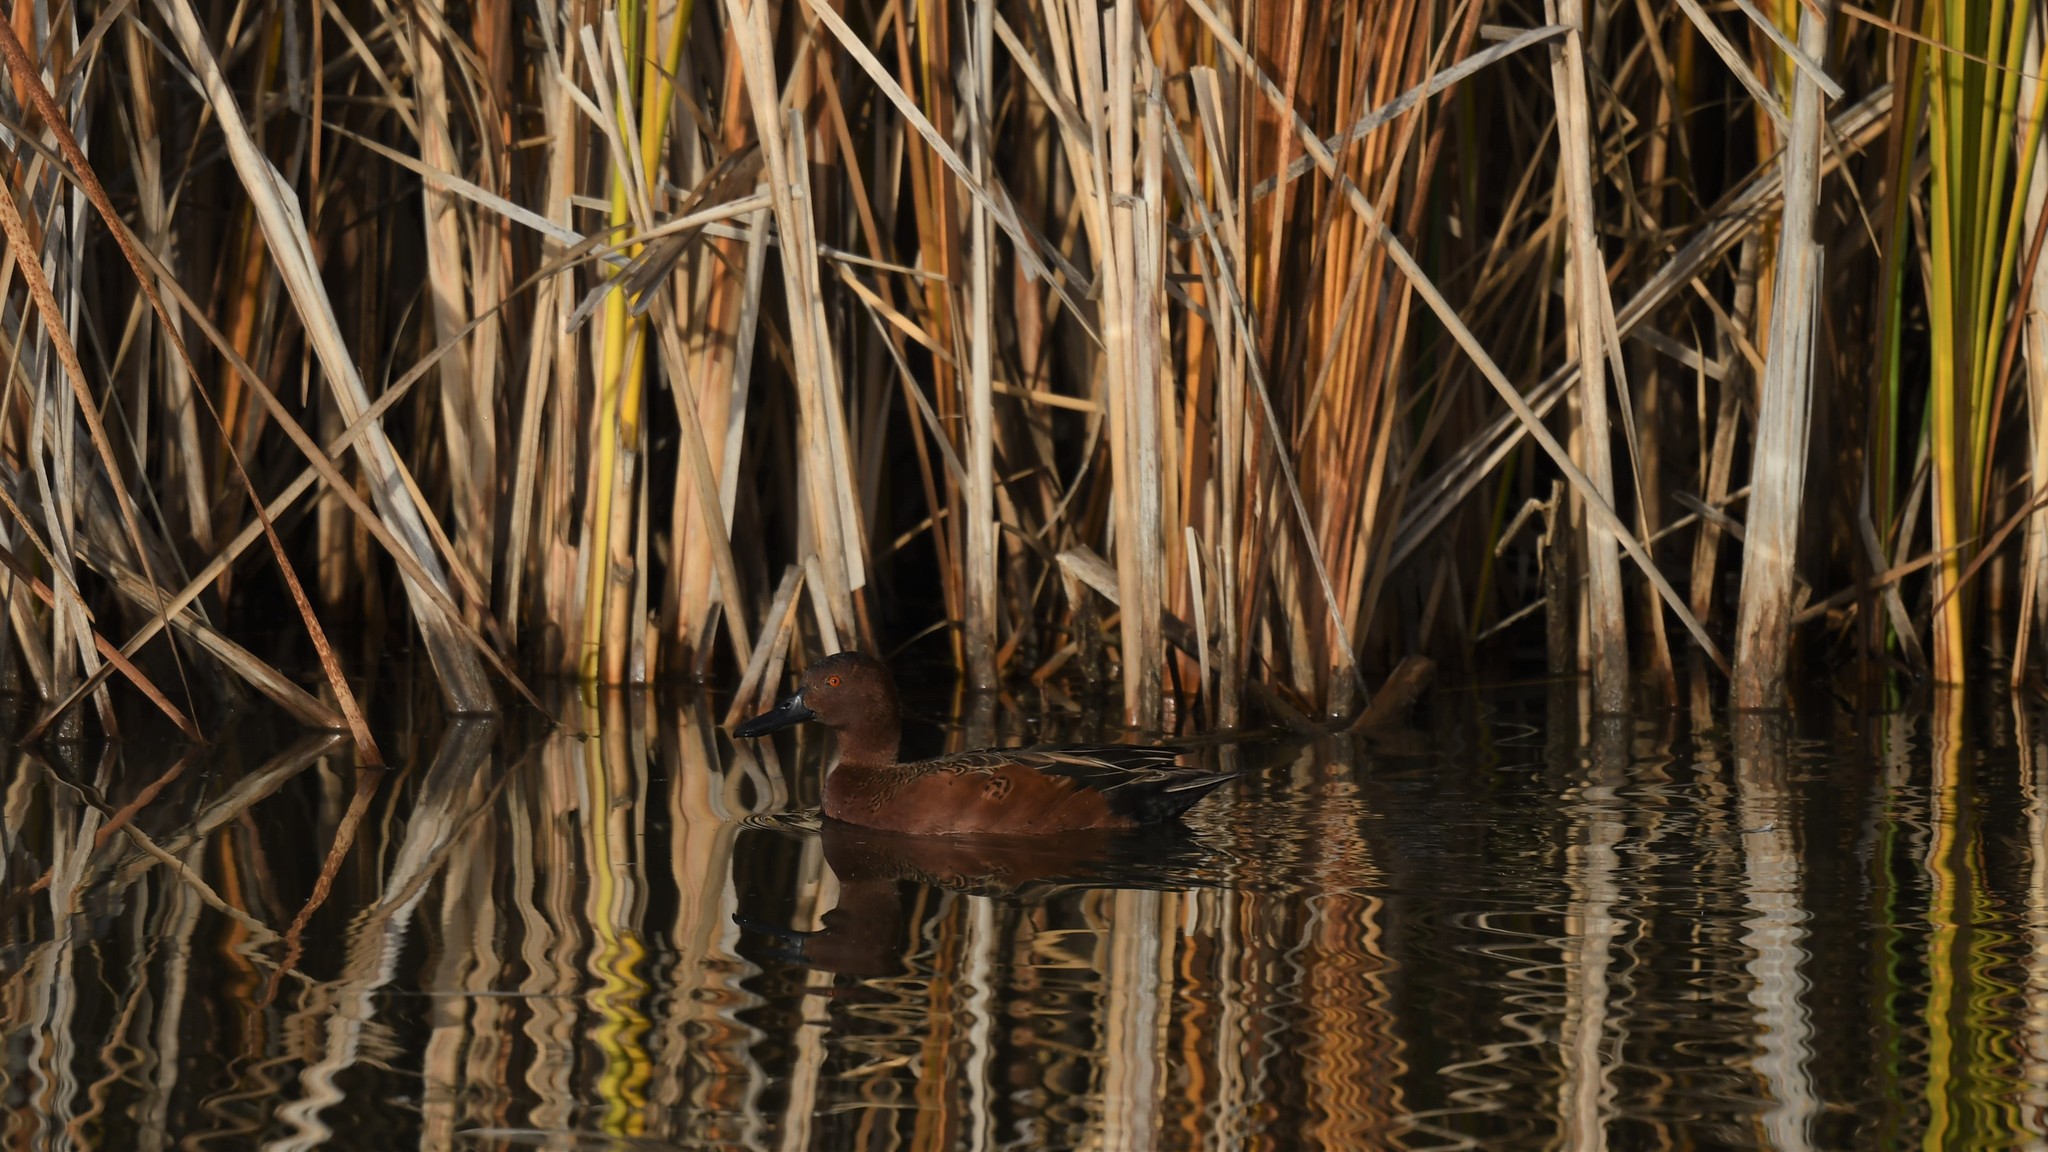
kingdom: Animalia
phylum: Chordata
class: Aves
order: Anseriformes
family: Anatidae
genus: Spatula
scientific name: Spatula cyanoptera
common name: Cinnamon teal
